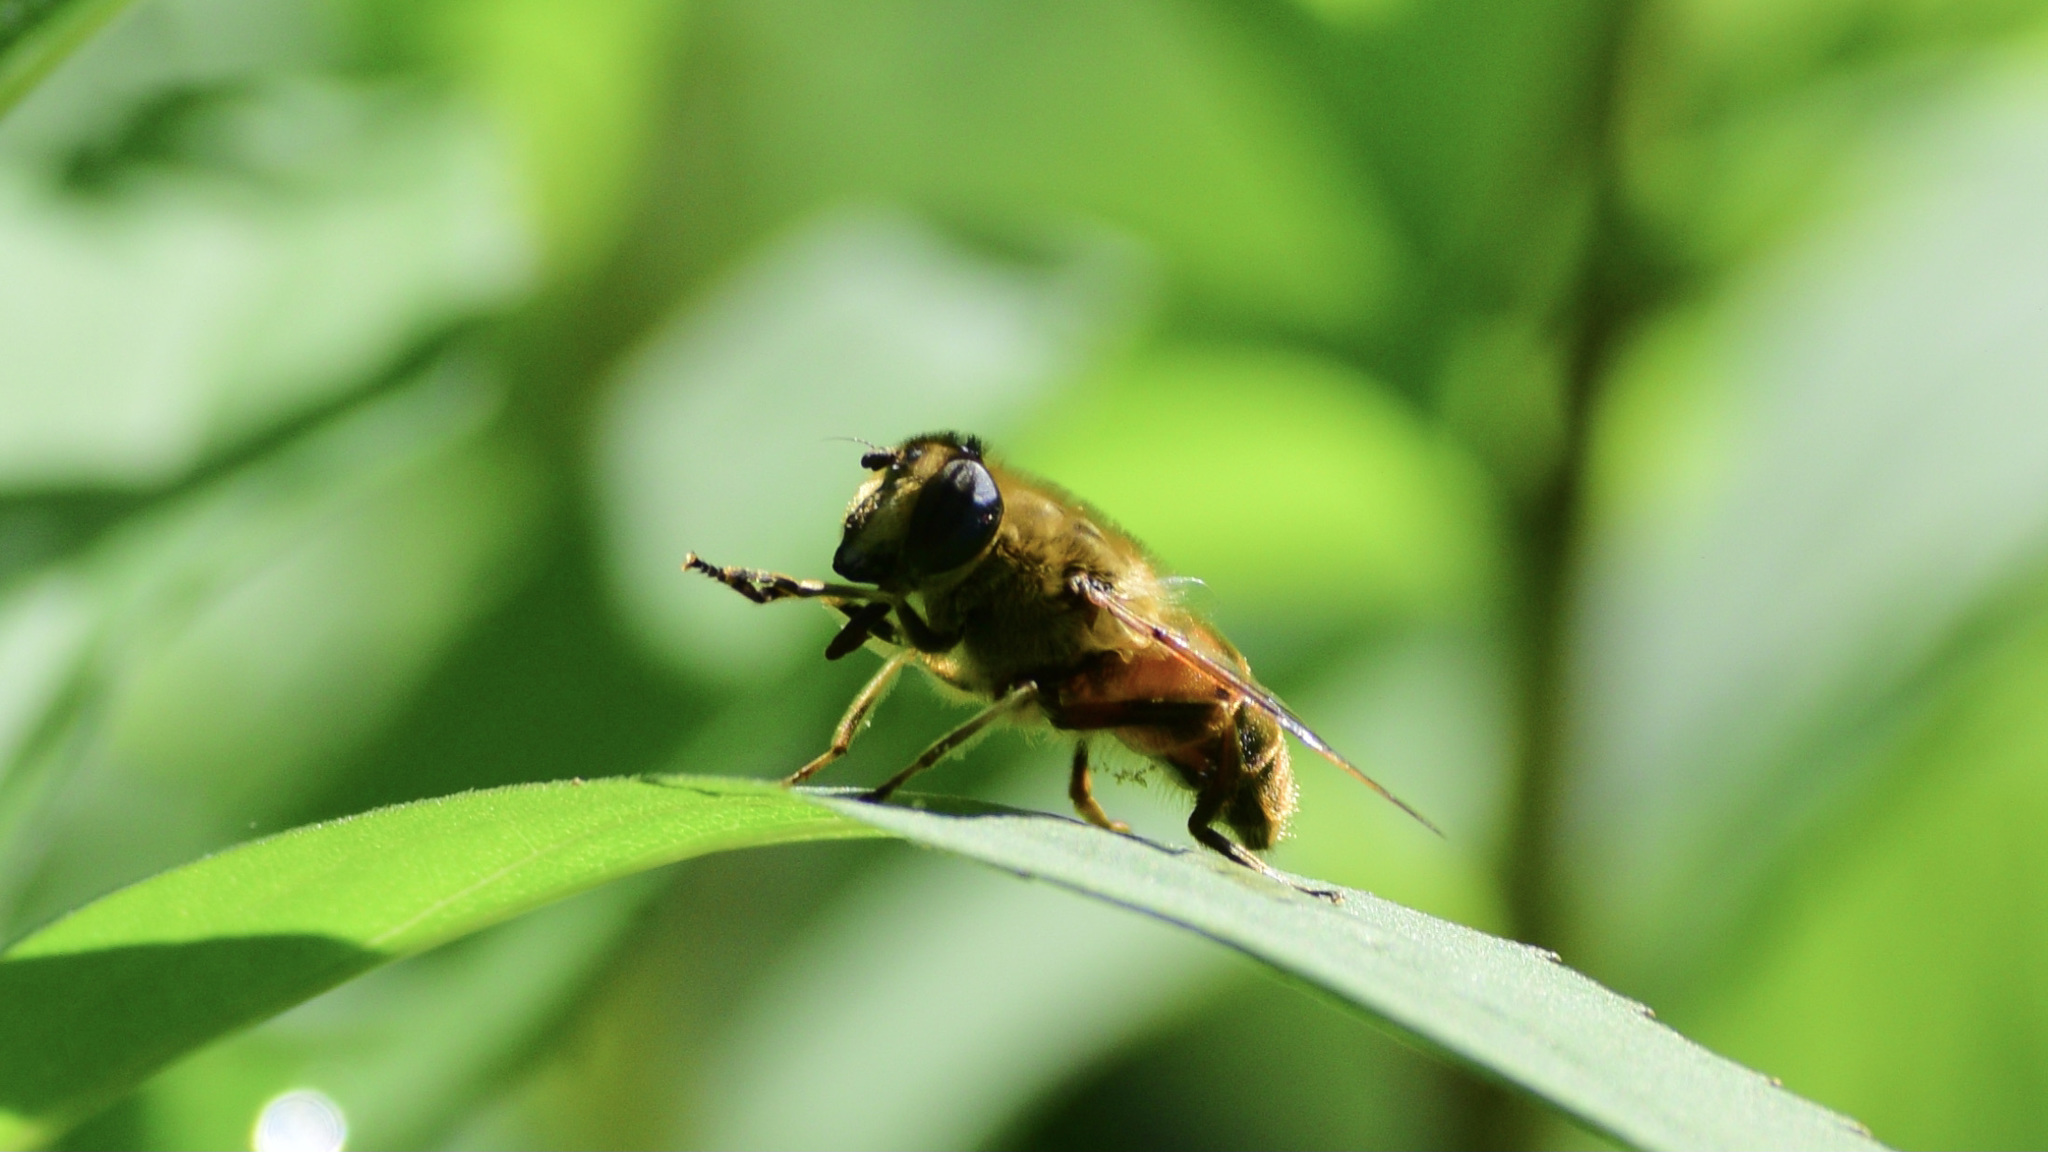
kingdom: Animalia
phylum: Arthropoda
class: Insecta
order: Diptera
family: Syrphidae
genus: Eristalis
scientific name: Eristalis tenax
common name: Drone fly
